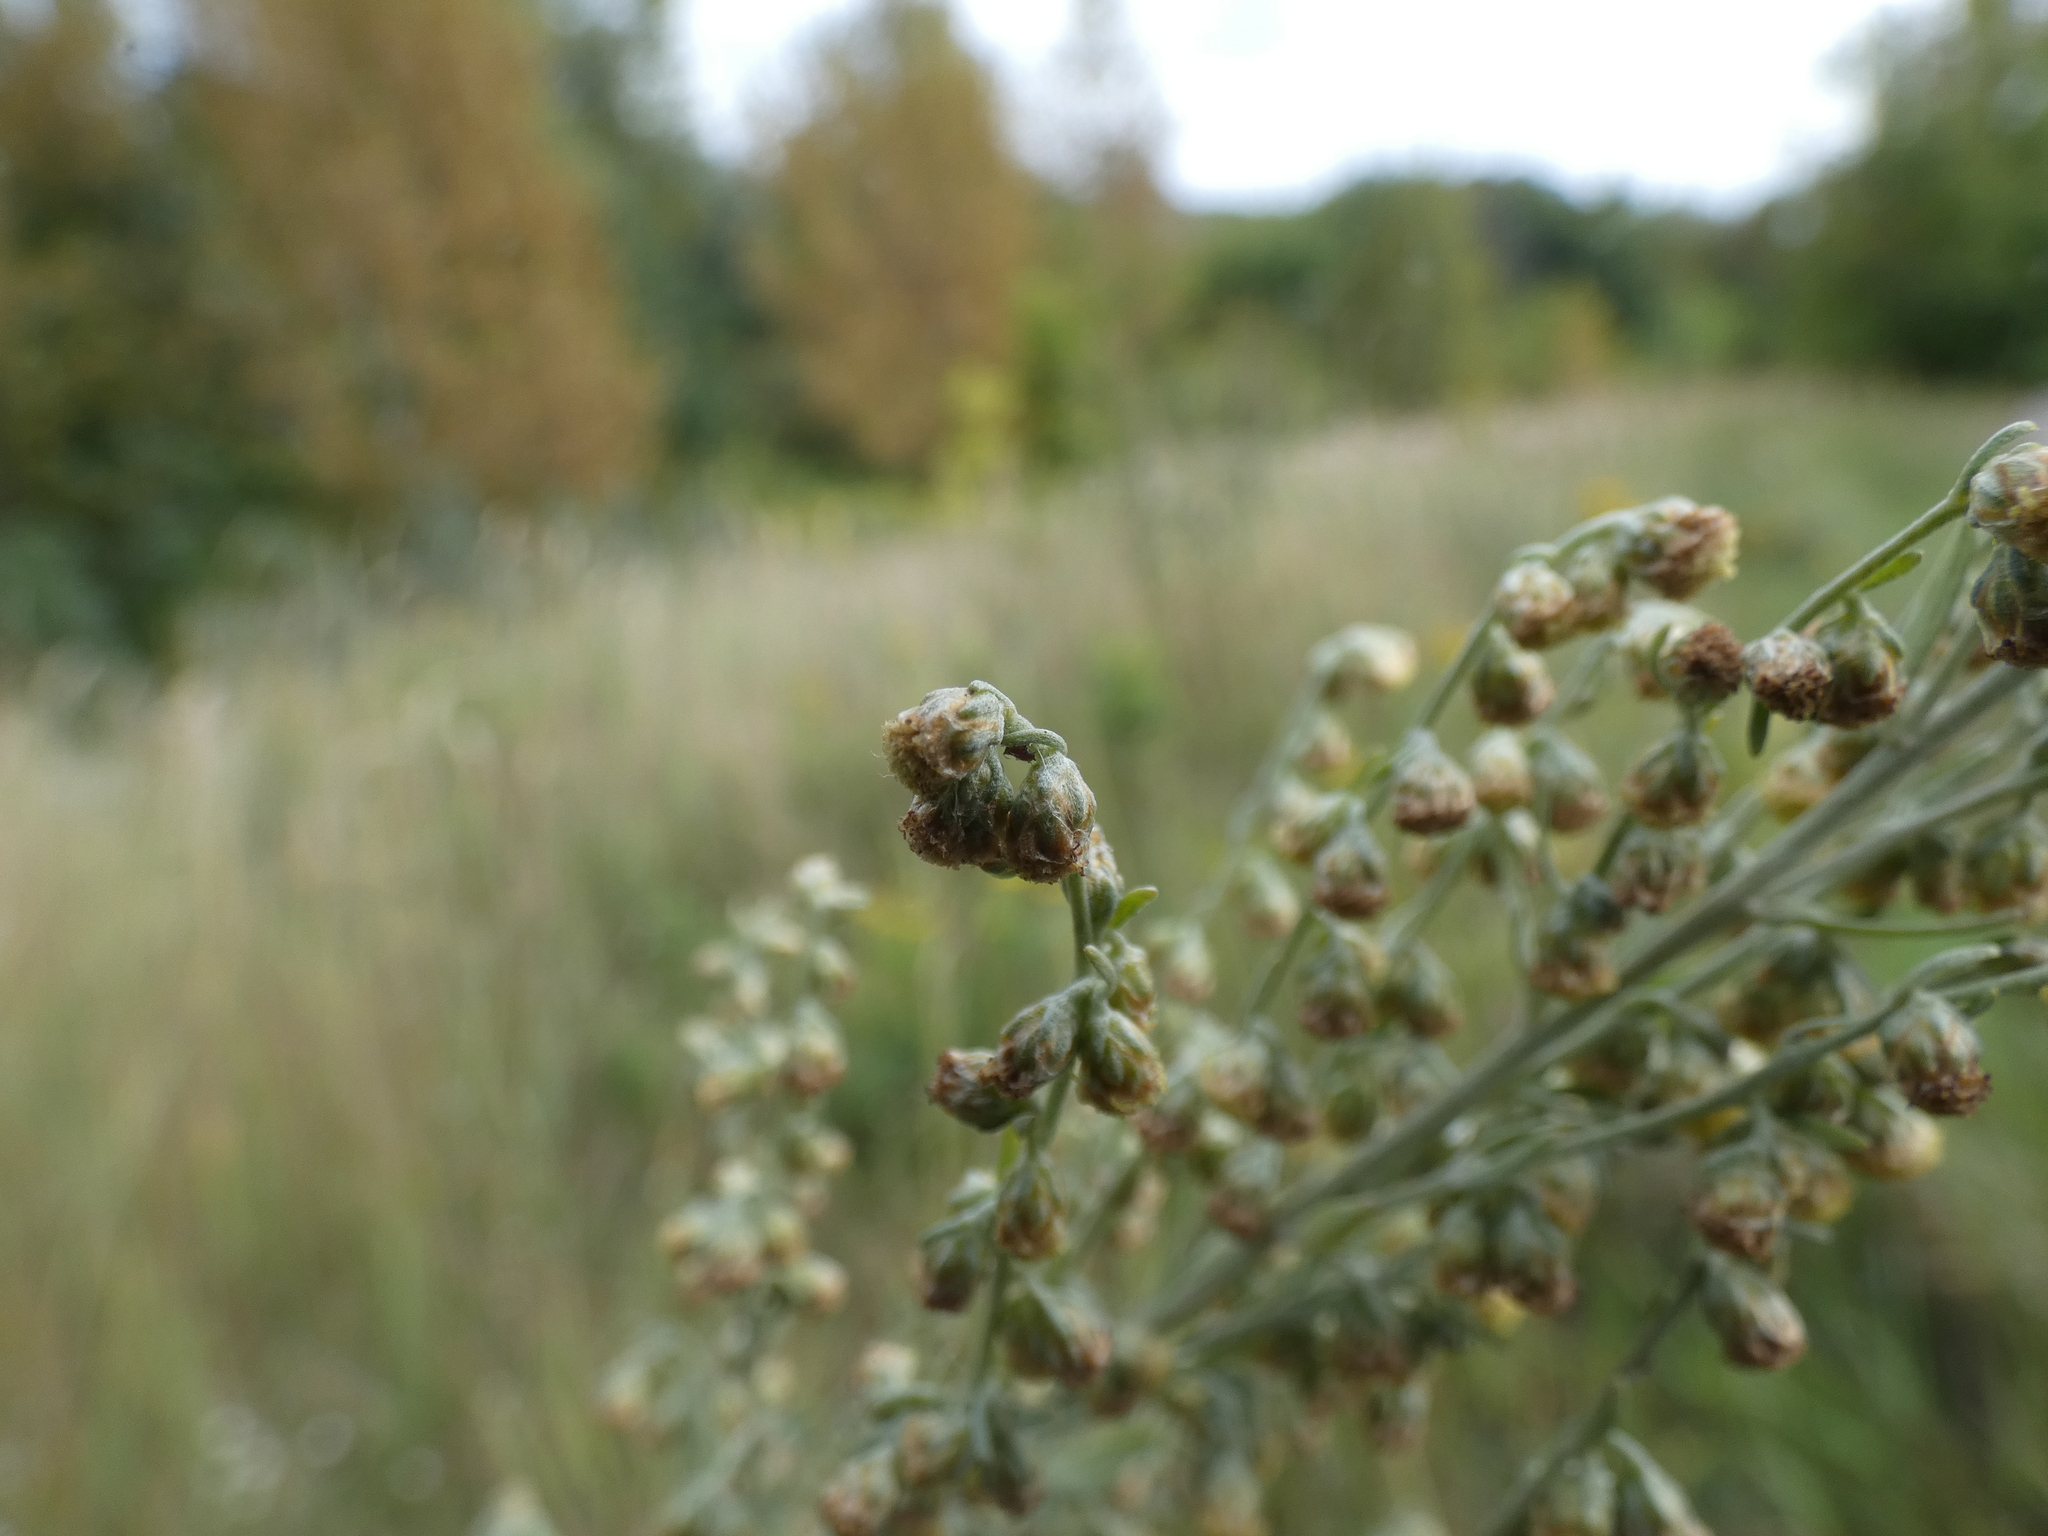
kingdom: Plantae
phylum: Tracheophyta
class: Magnoliopsida
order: Asterales
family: Asteraceae
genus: Artemisia
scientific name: Artemisia absinthium
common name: Wormwood
